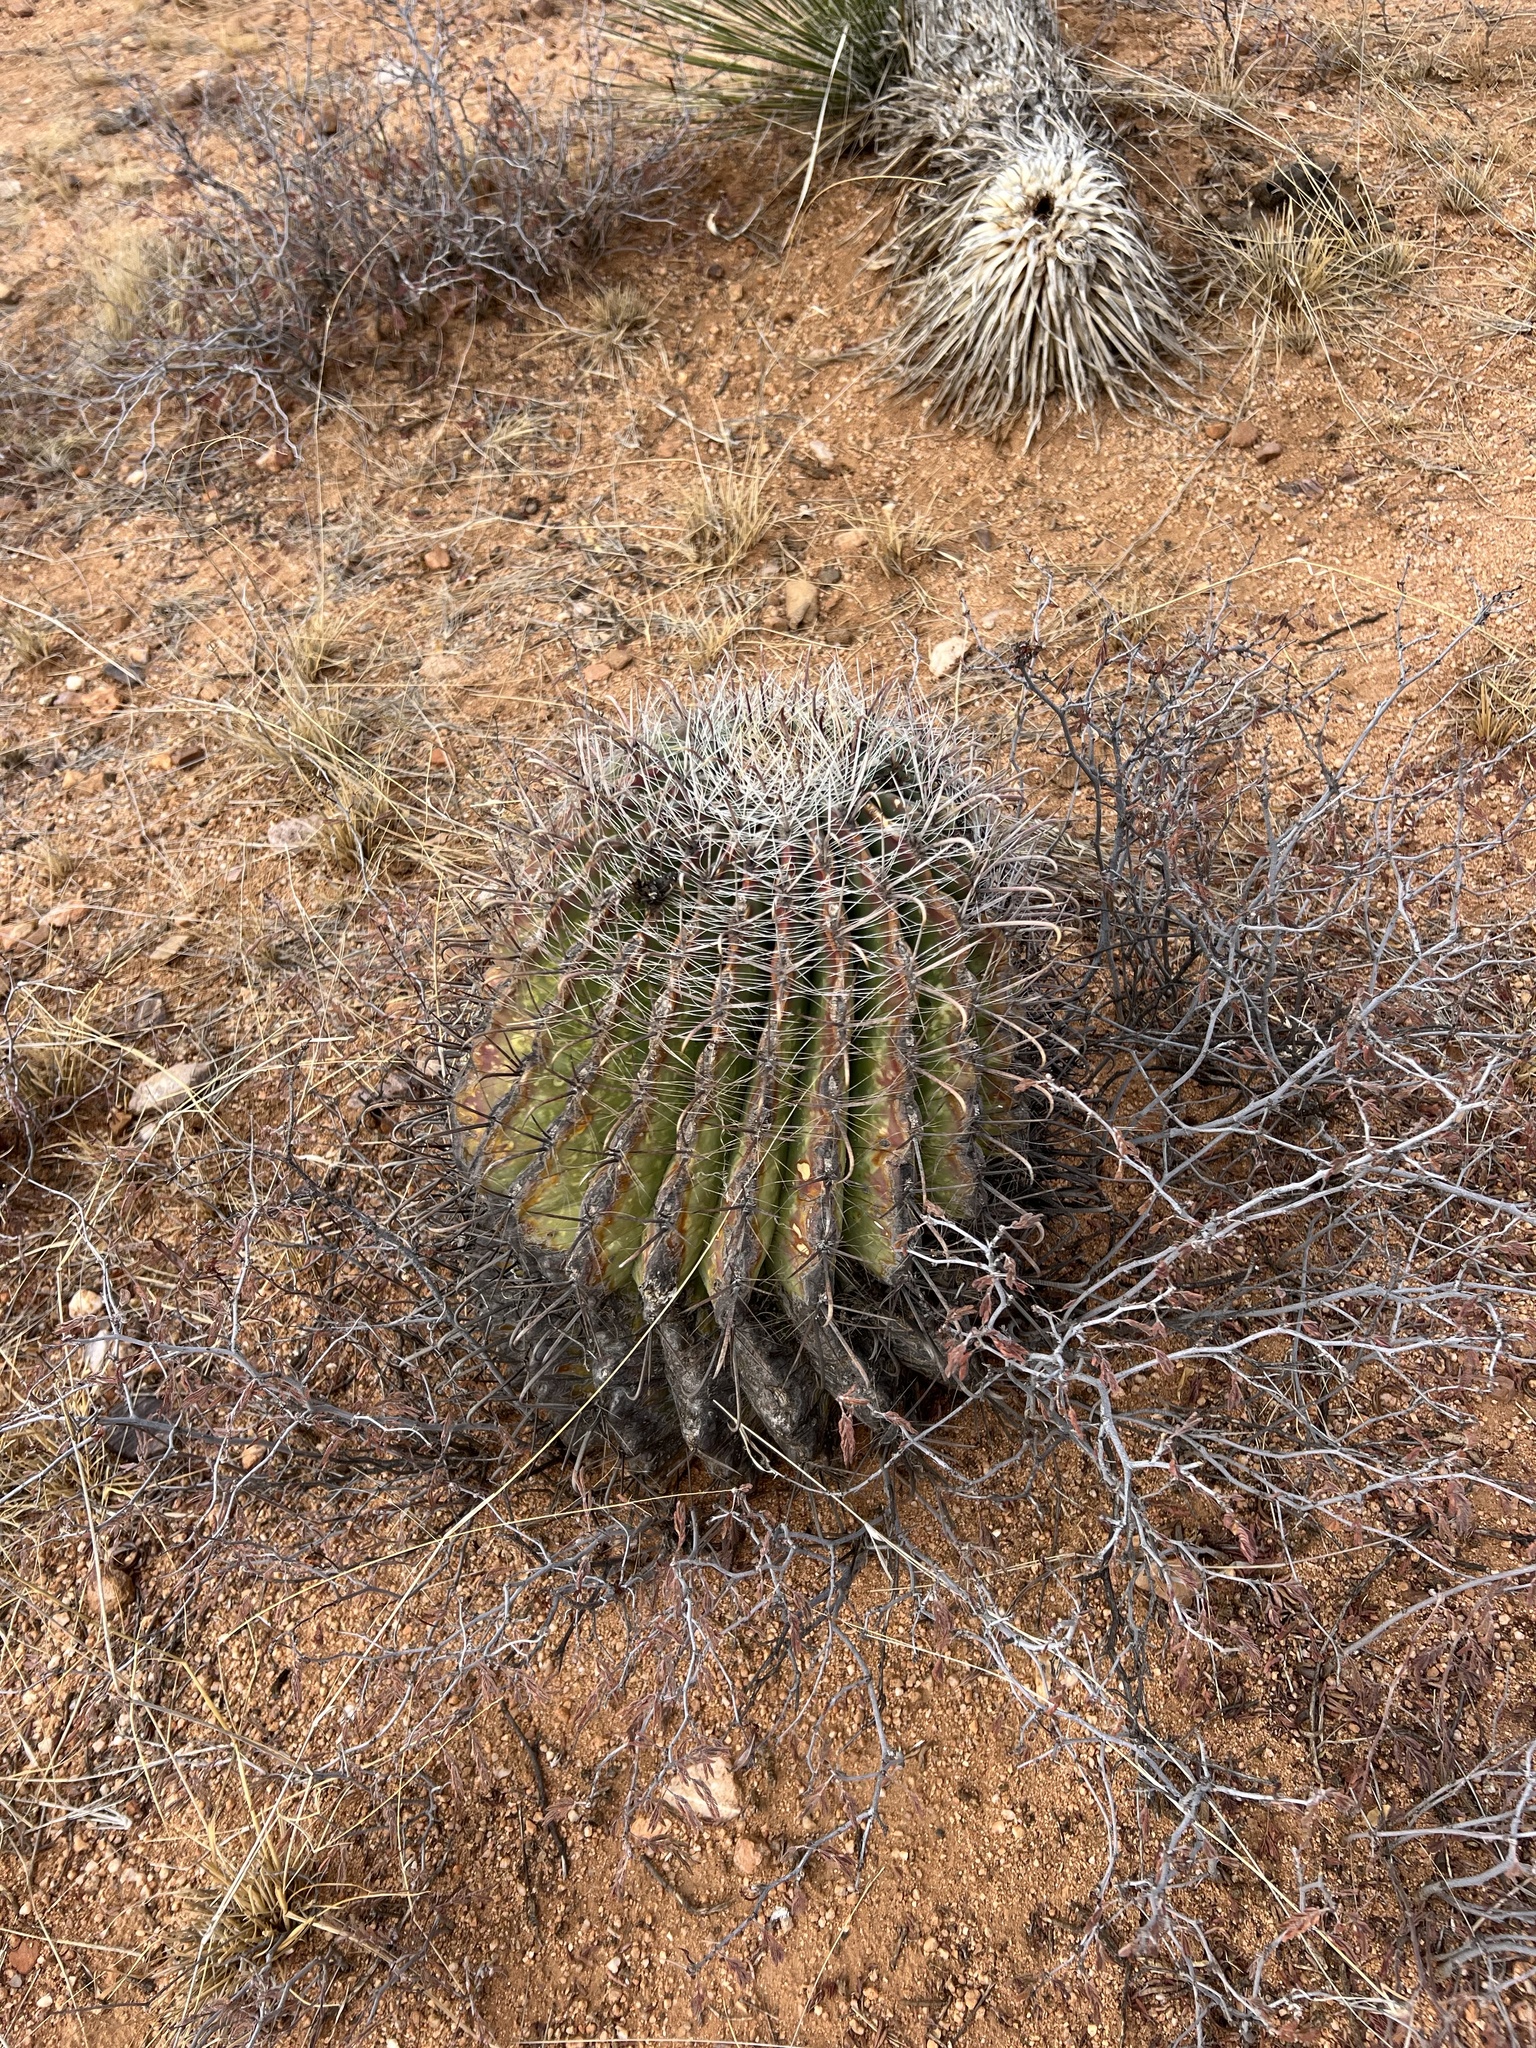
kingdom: Plantae
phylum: Tracheophyta
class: Magnoliopsida
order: Caryophyllales
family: Cactaceae
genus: Ferocactus
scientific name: Ferocactus wislizeni
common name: Candy barrel cactus
